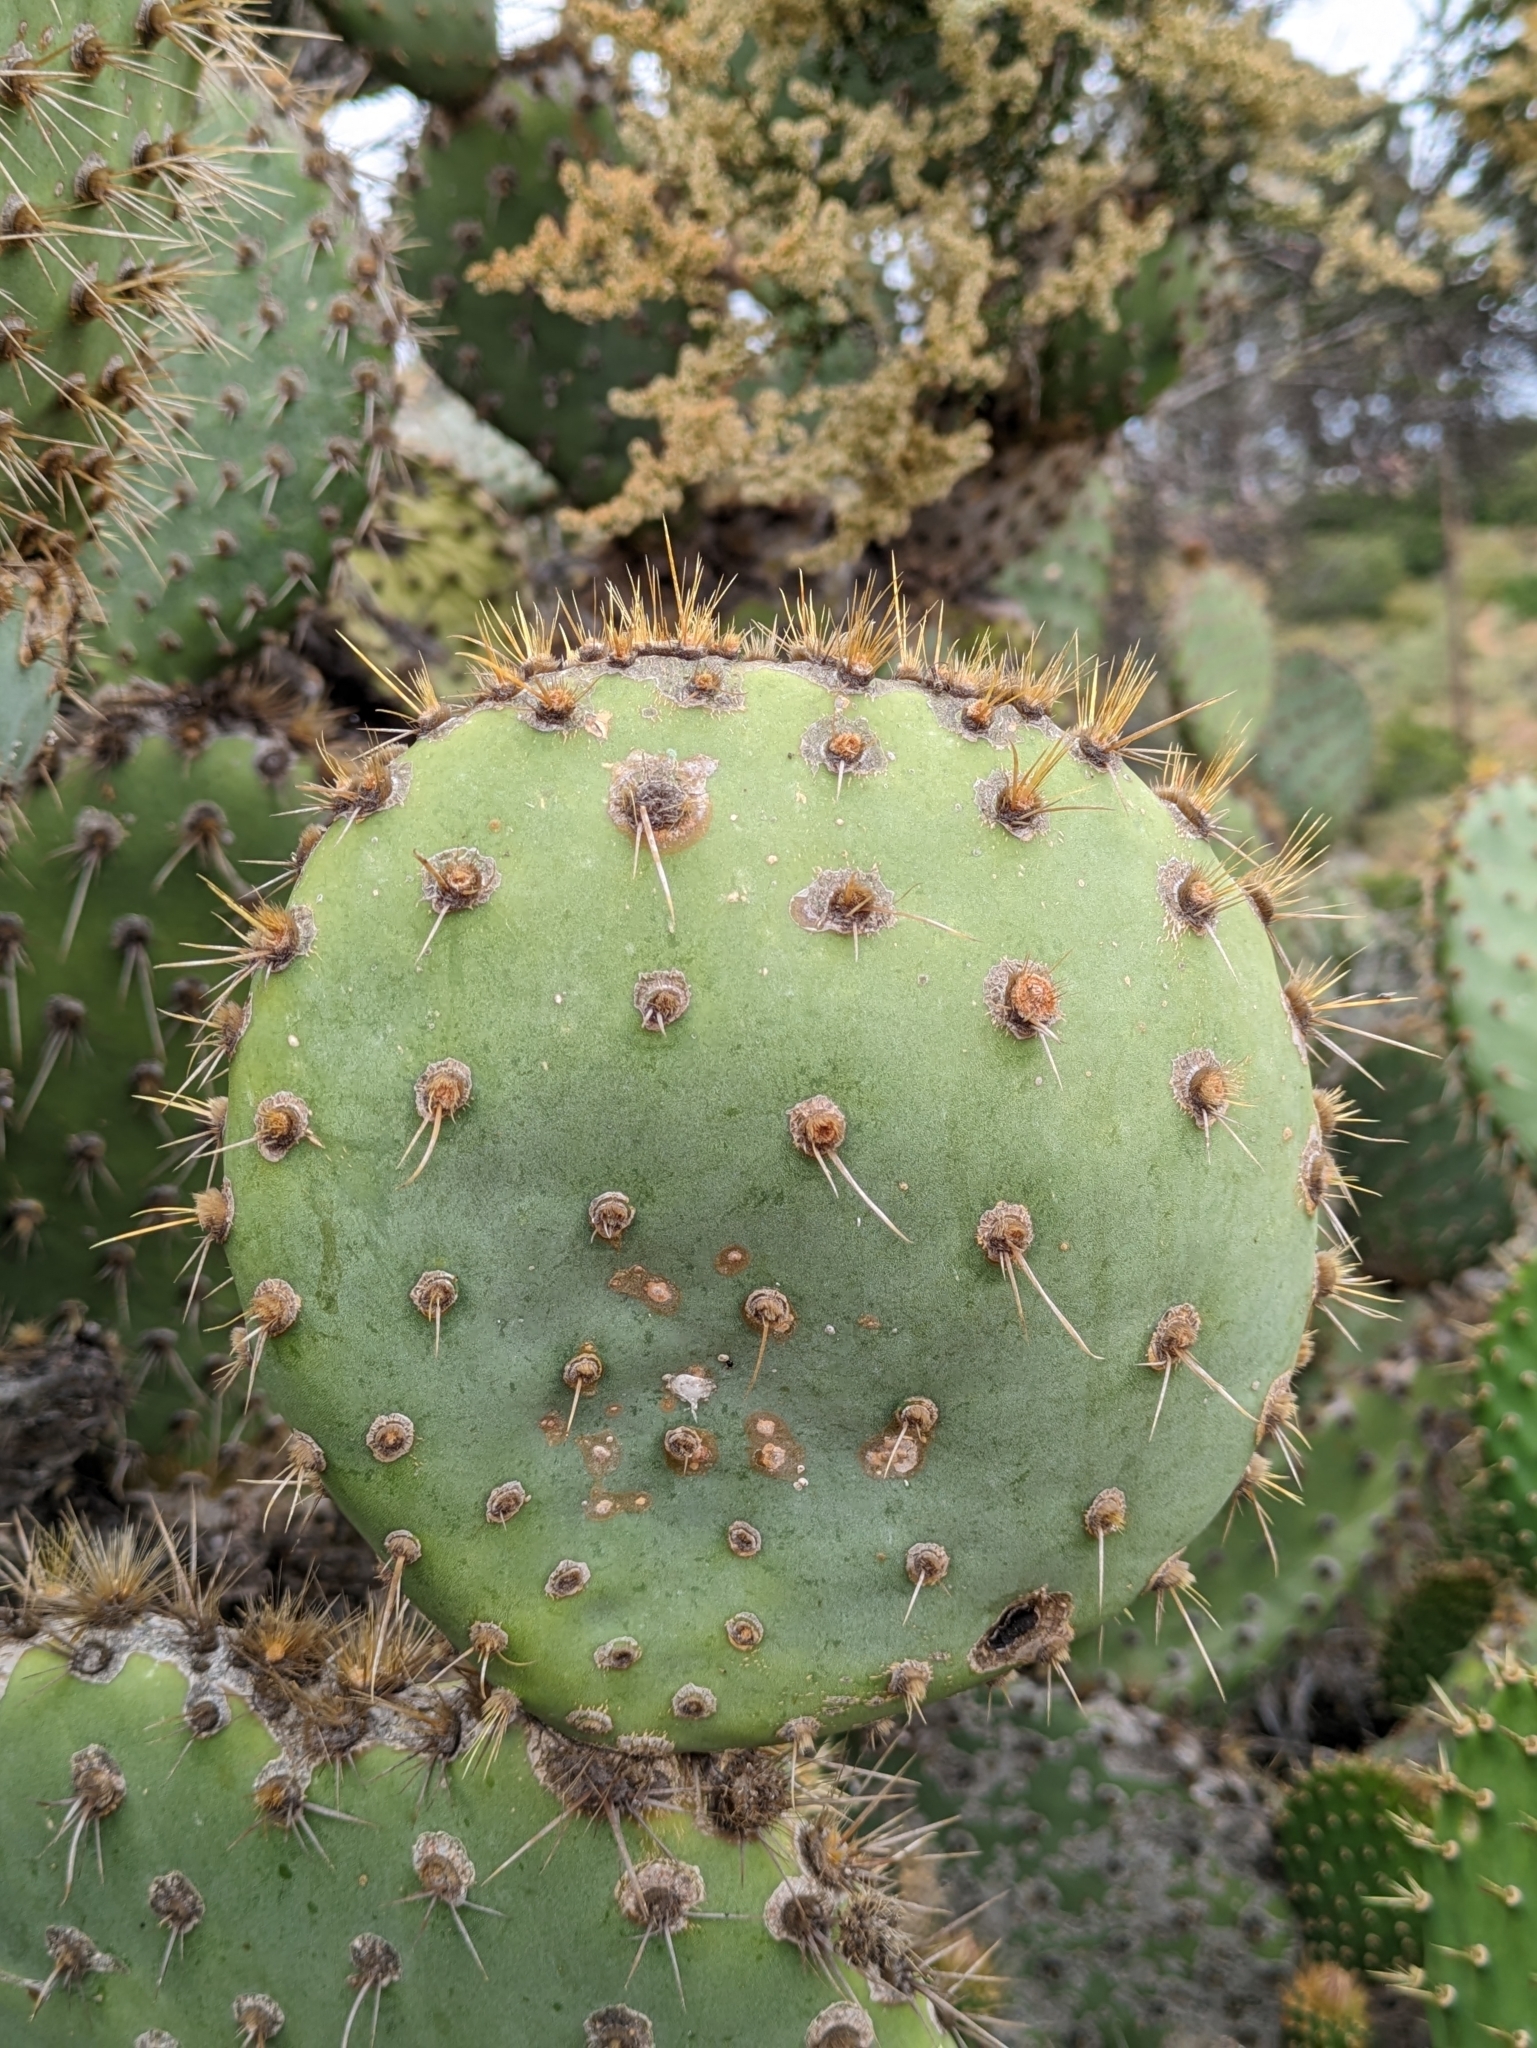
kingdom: Plantae
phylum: Tracheophyta
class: Magnoliopsida
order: Caryophyllales
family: Cactaceae
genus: Opuntia
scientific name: Opuntia oricola
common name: Chaparral prickly-pear
